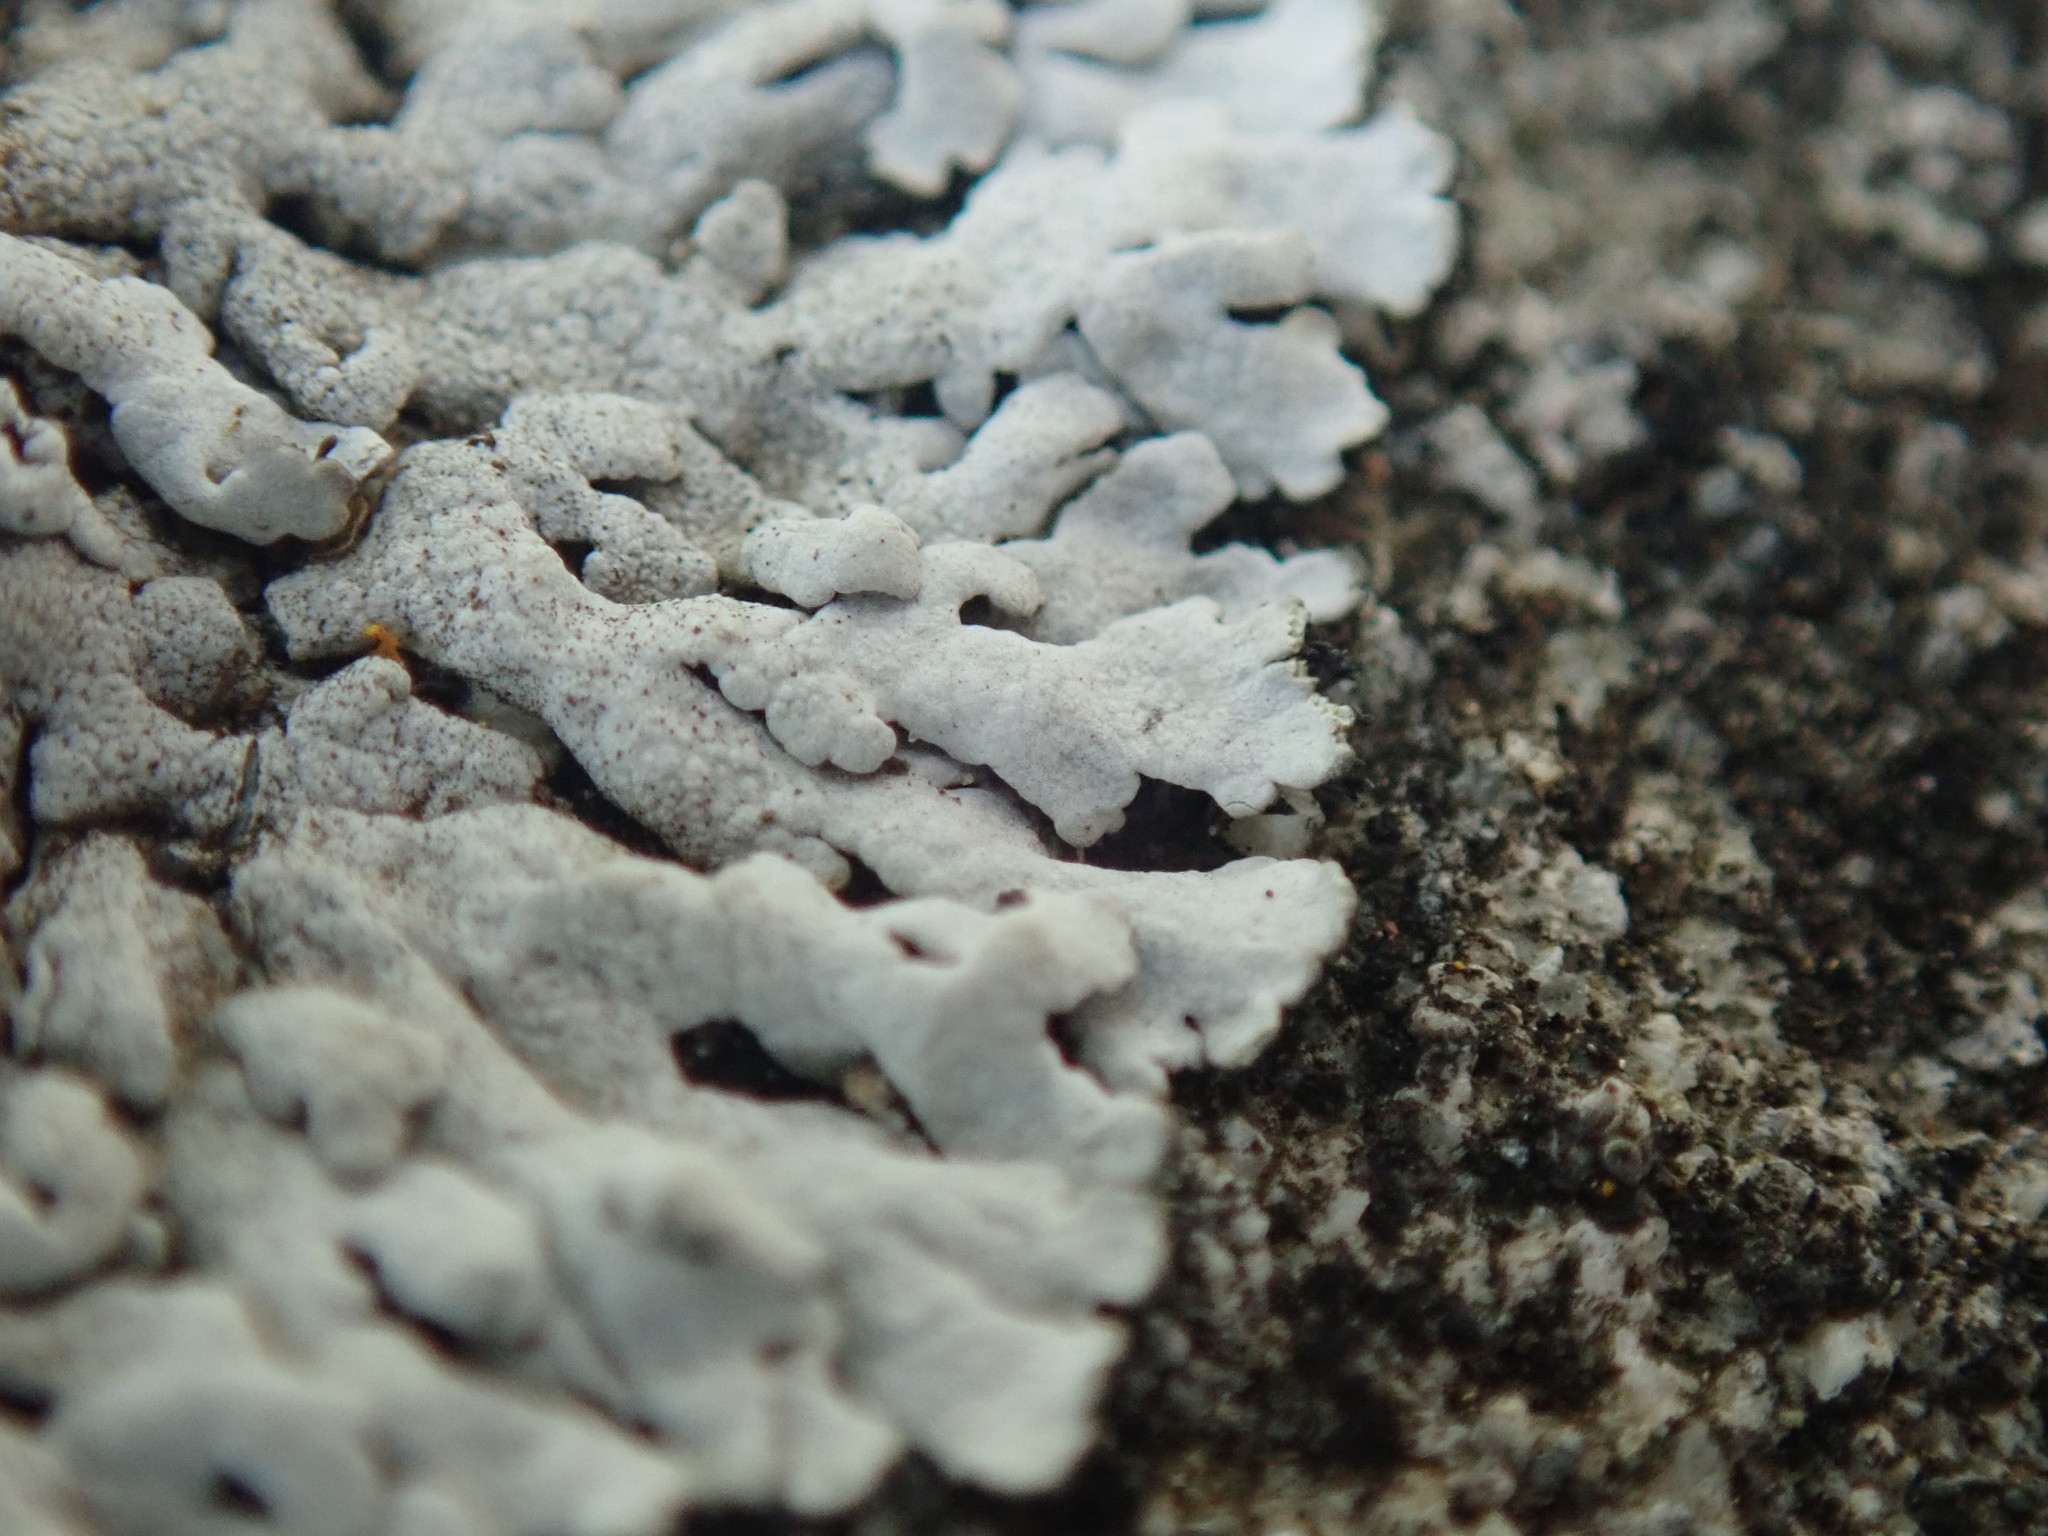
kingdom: Fungi
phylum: Ascomycota
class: Lecanoromycetes
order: Caliciales
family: Physciaceae
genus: Physcia
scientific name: Physcia caesia
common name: Blue-gray rosette lichen
